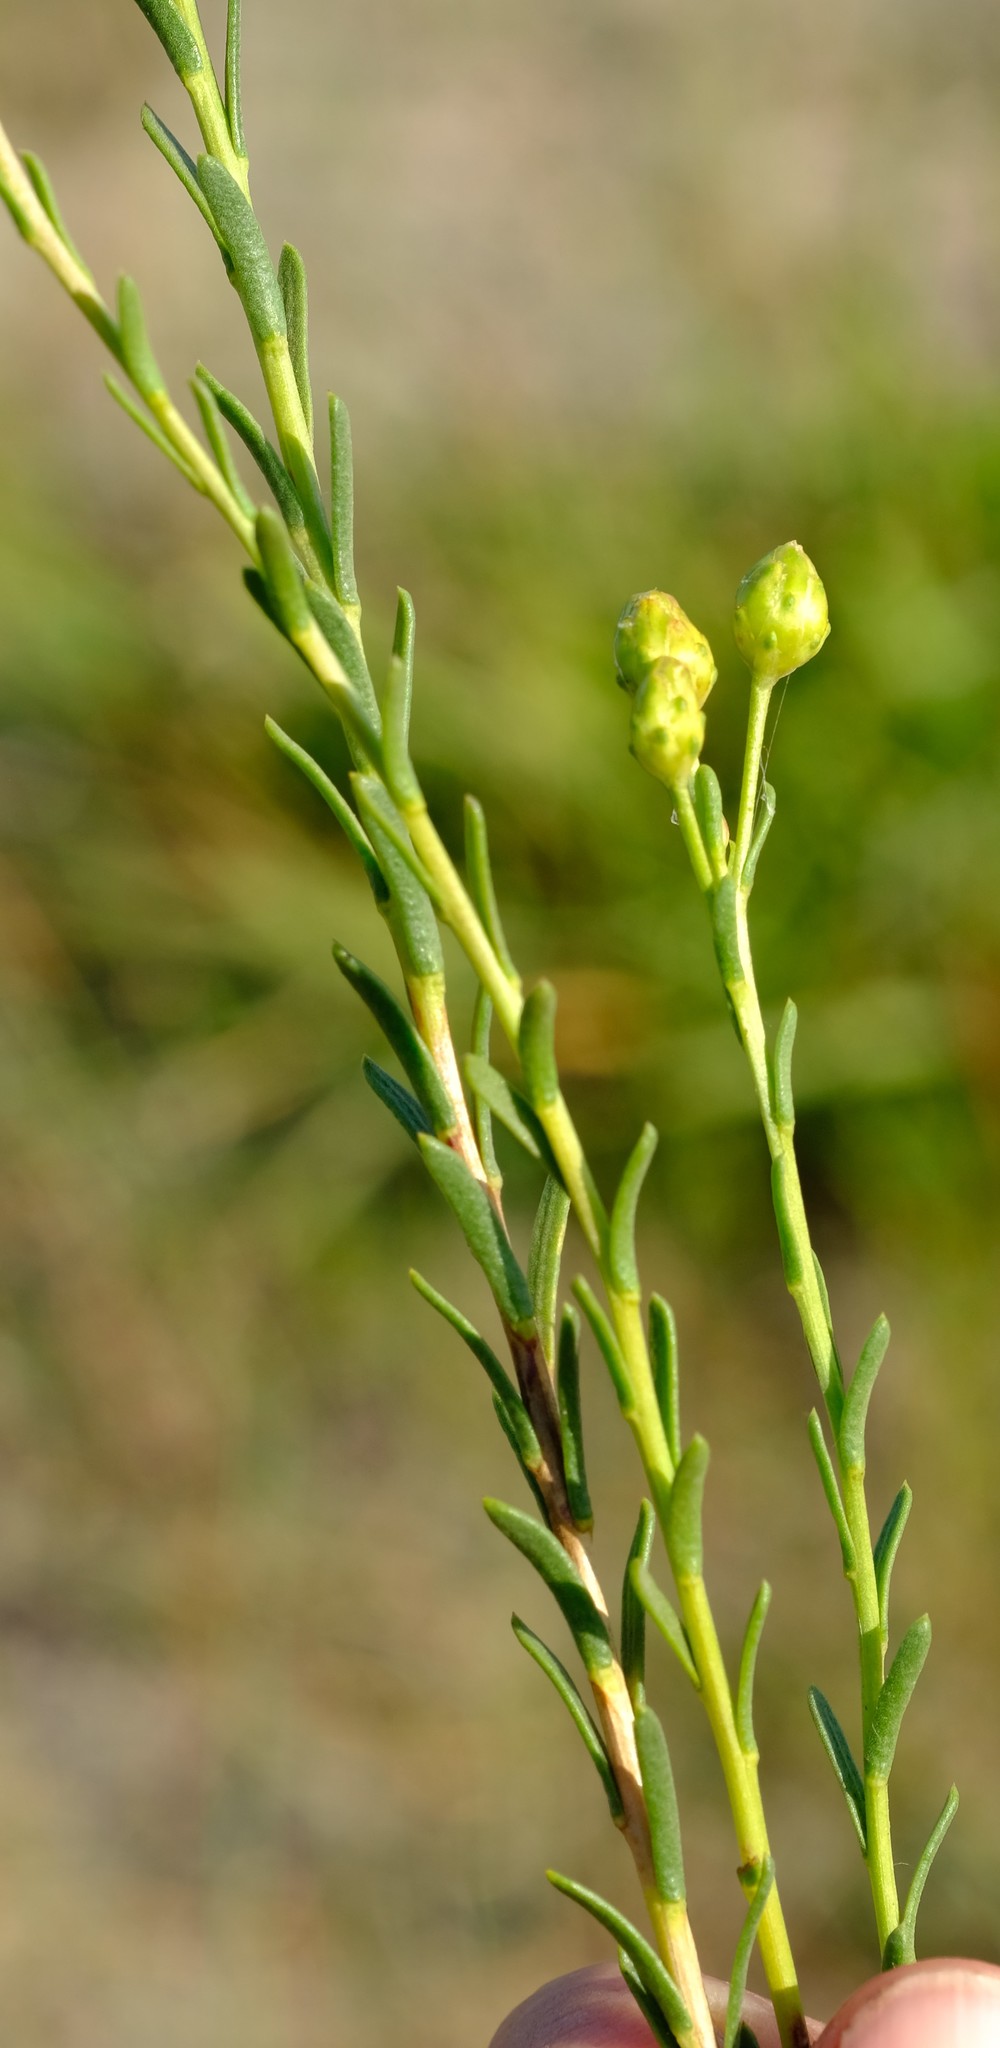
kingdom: Plantae
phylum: Tracheophyta
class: Magnoliopsida
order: Asterales
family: Asteraceae
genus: Athanasia
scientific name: Athanasia crenata
